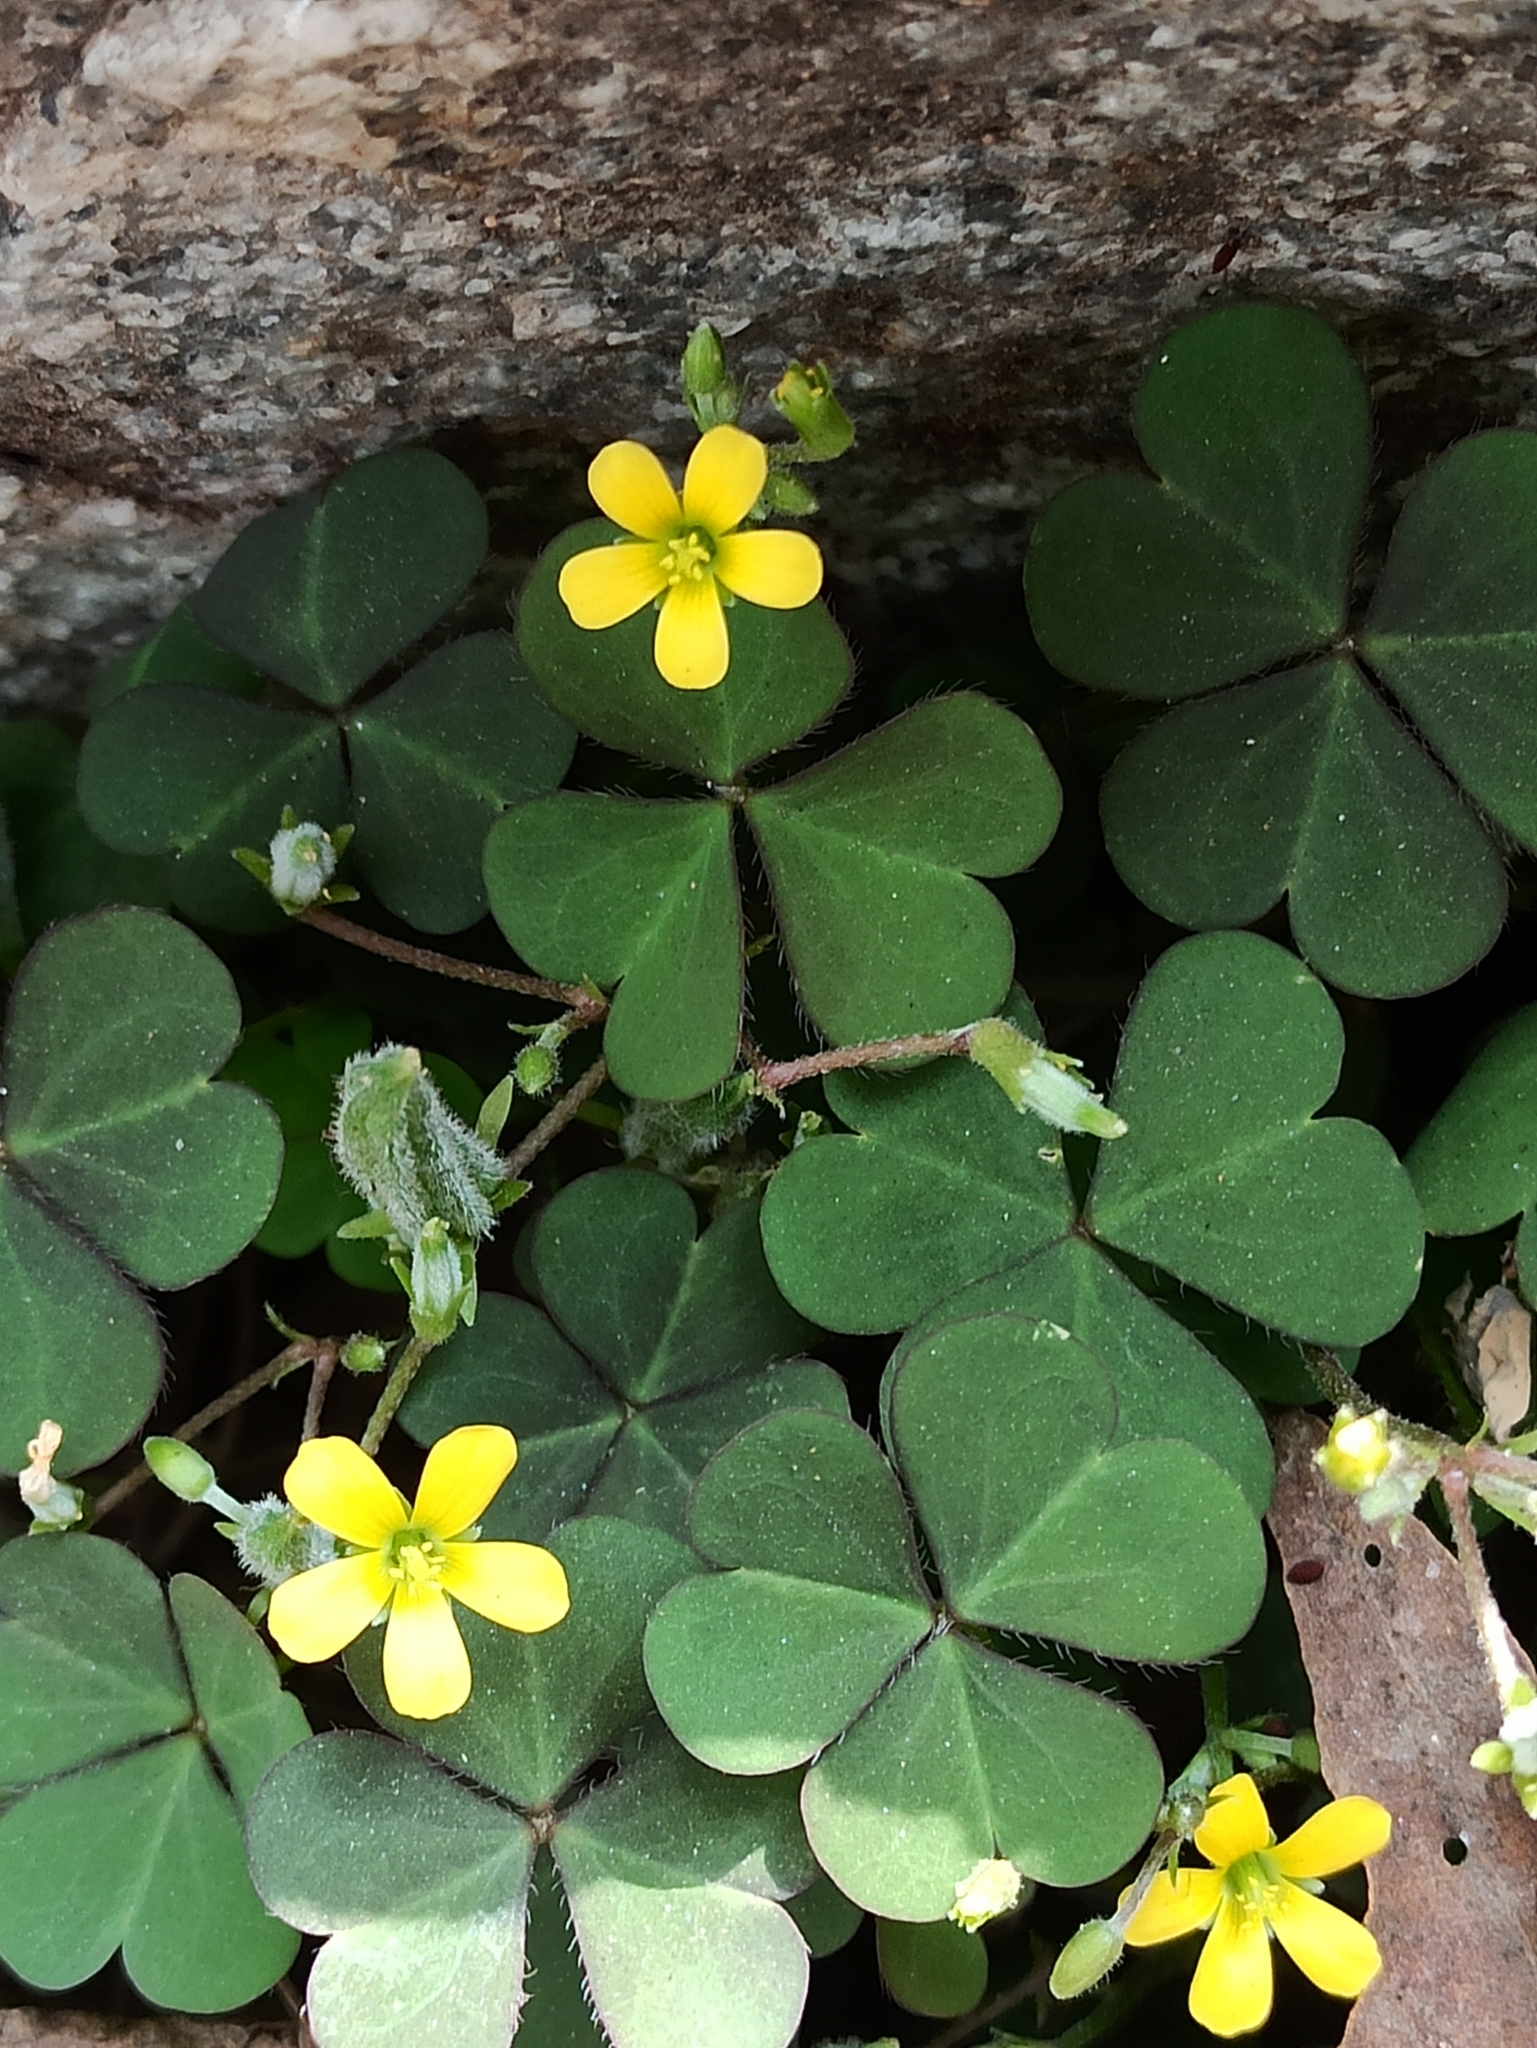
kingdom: Plantae
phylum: Tracheophyta
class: Magnoliopsida
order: Oxalidales
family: Oxalidaceae
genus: Oxalis
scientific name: Oxalis corniculata
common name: Procumbent yellow-sorrel
